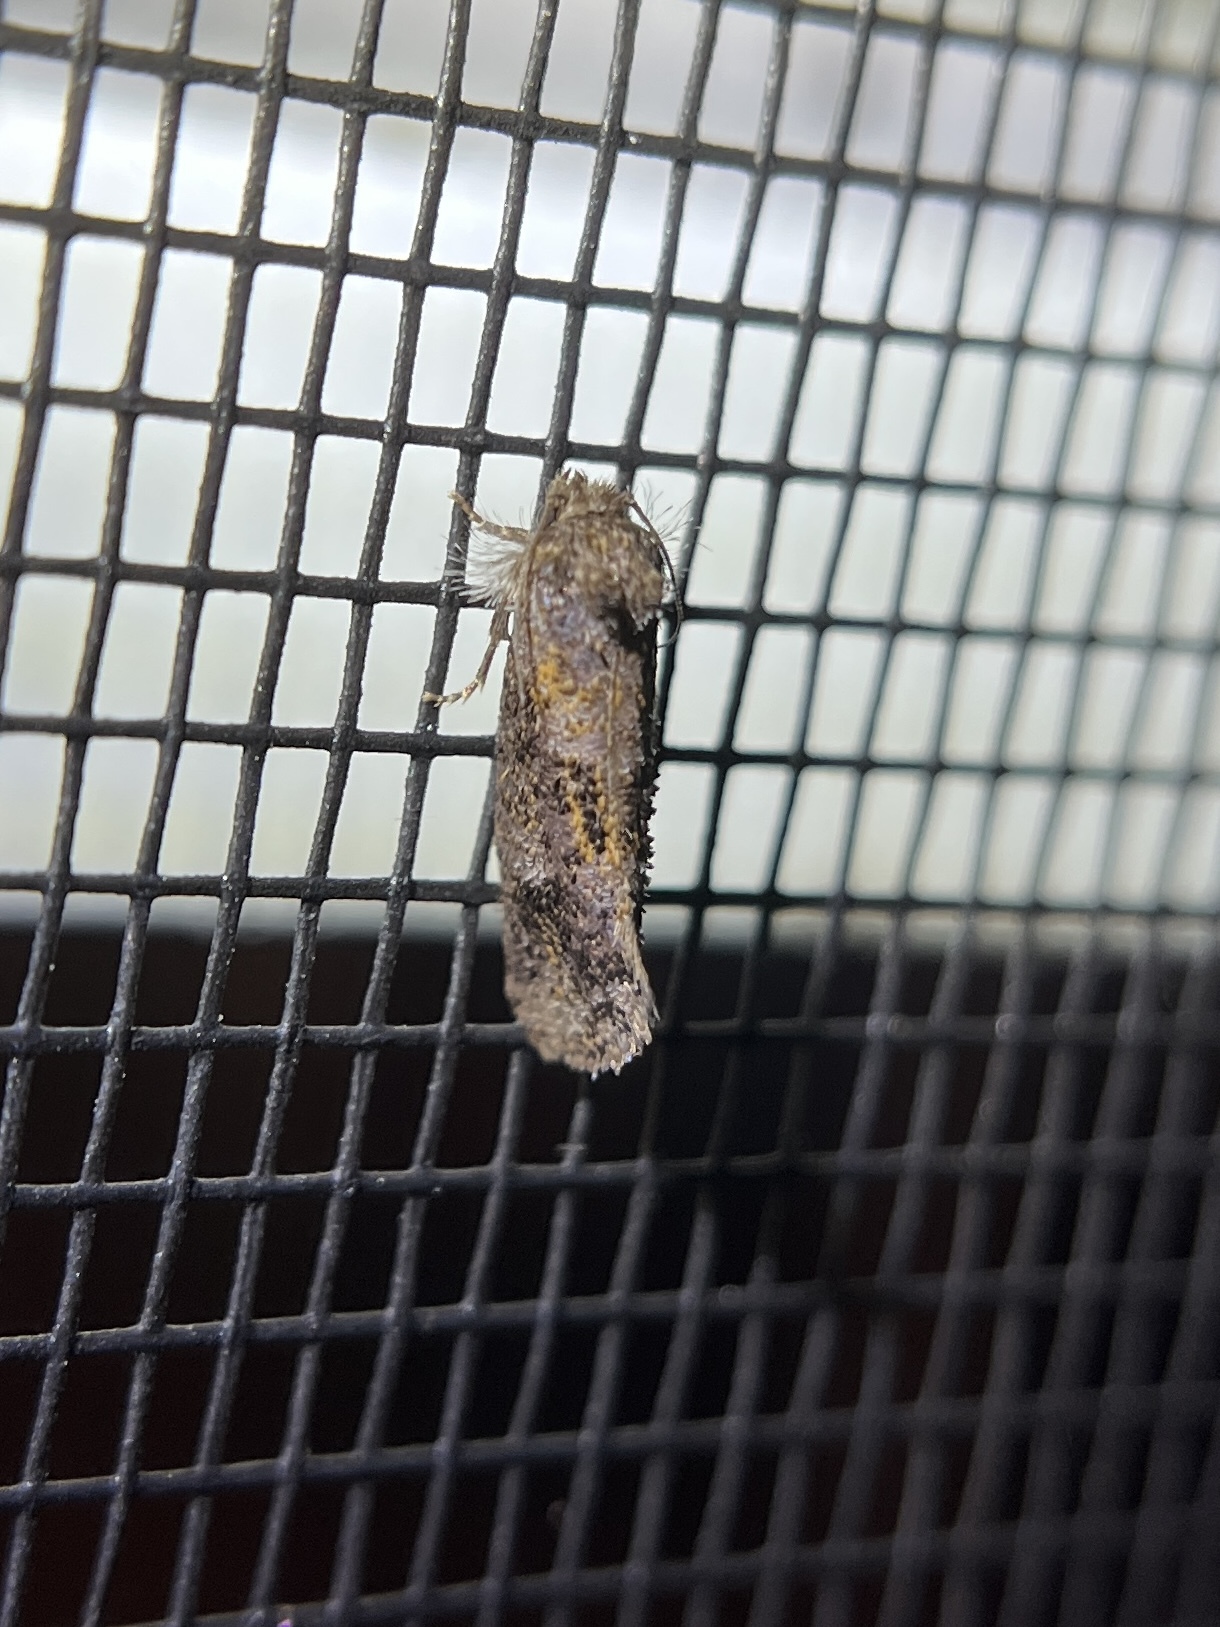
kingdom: Animalia
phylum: Arthropoda
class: Insecta
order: Lepidoptera
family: Tineidae
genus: Acrolophus
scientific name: Acrolophus panamae
